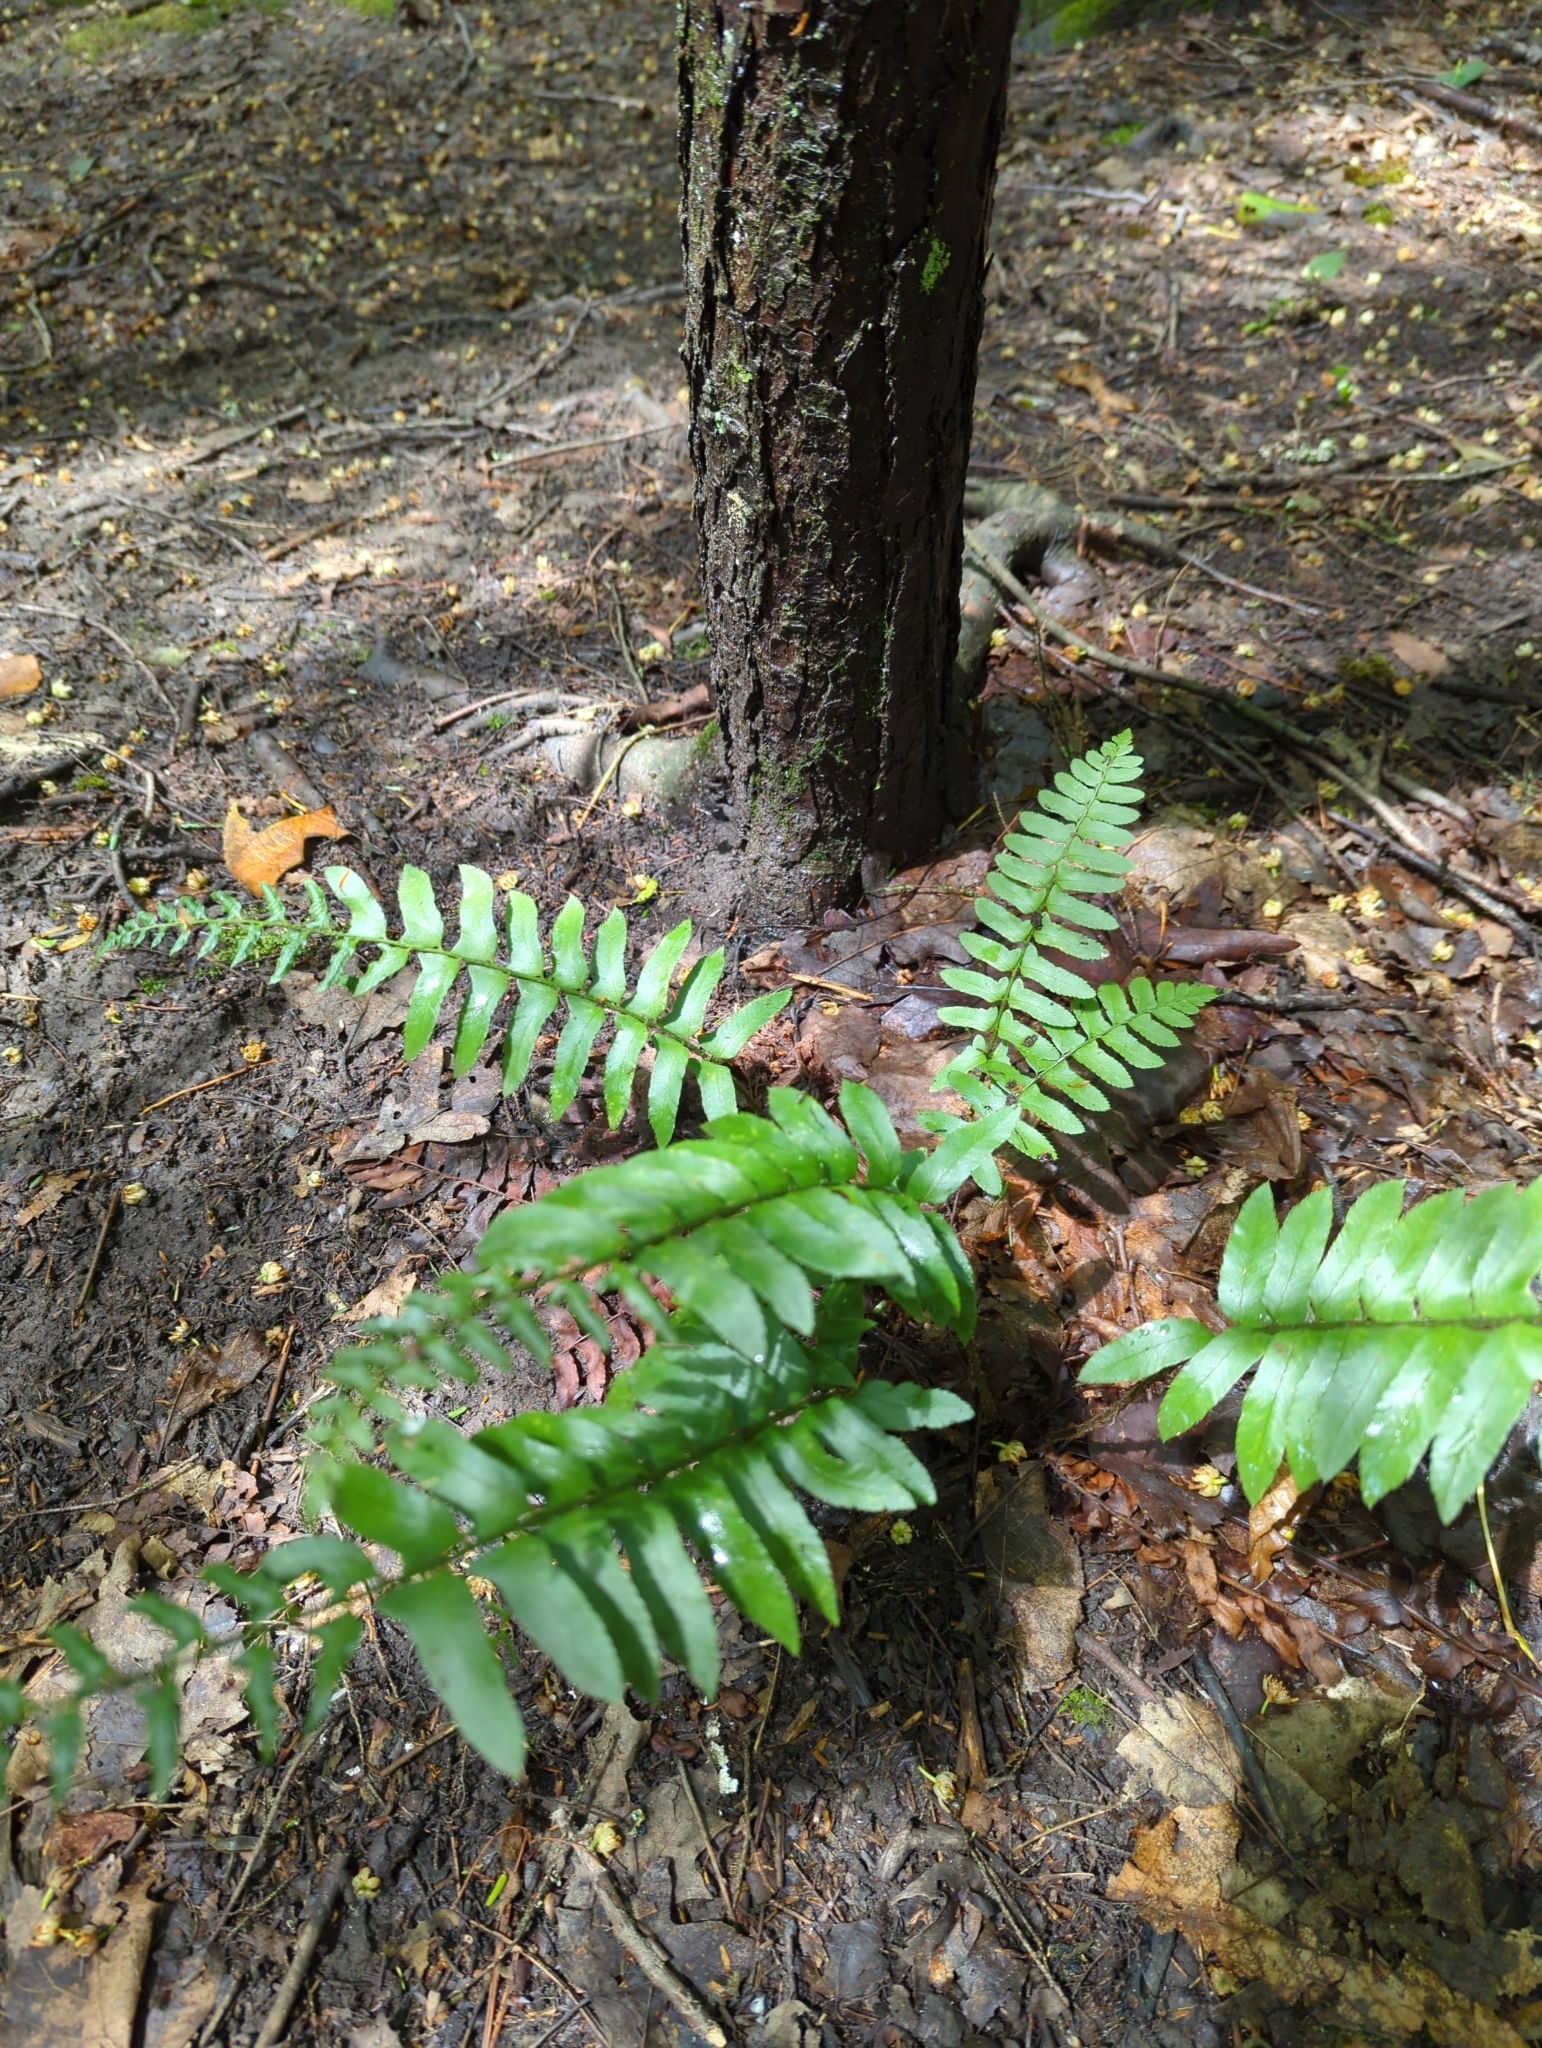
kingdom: Plantae
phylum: Tracheophyta
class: Polypodiopsida
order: Polypodiales
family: Dryopteridaceae
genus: Polystichum
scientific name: Polystichum acrostichoides
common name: Christmas fern
